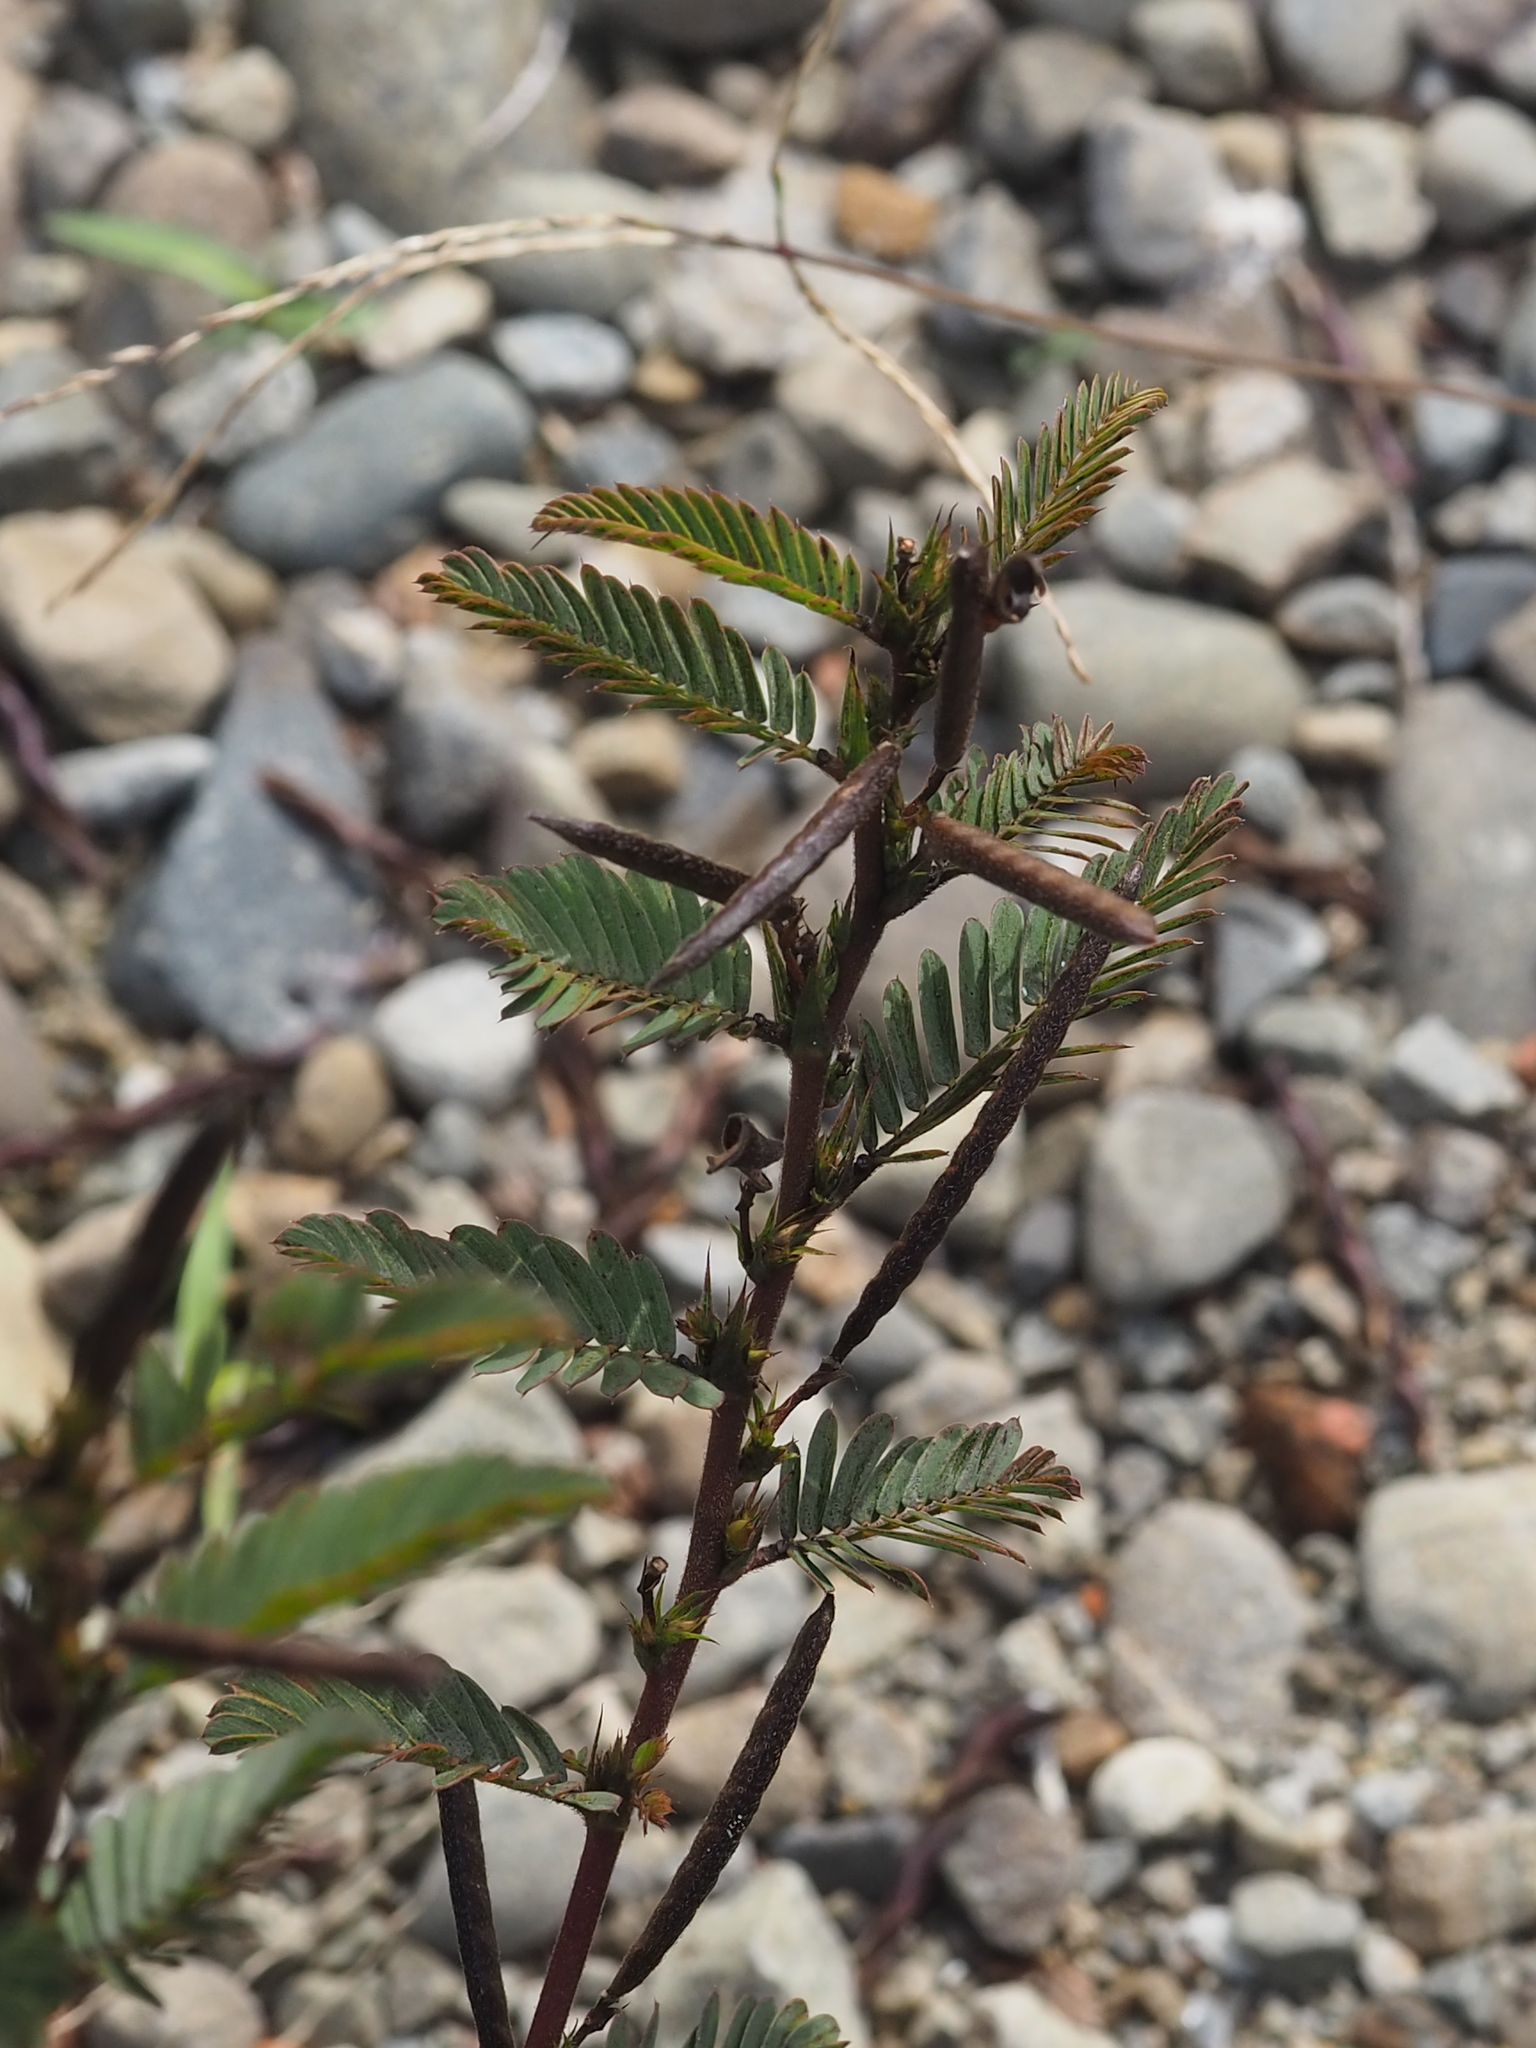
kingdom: Plantae
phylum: Tracheophyta
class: Magnoliopsida
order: Fabales
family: Fabaceae
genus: Chamaecrista
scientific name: Chamaecrista nictitans
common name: Sensitive cassia
